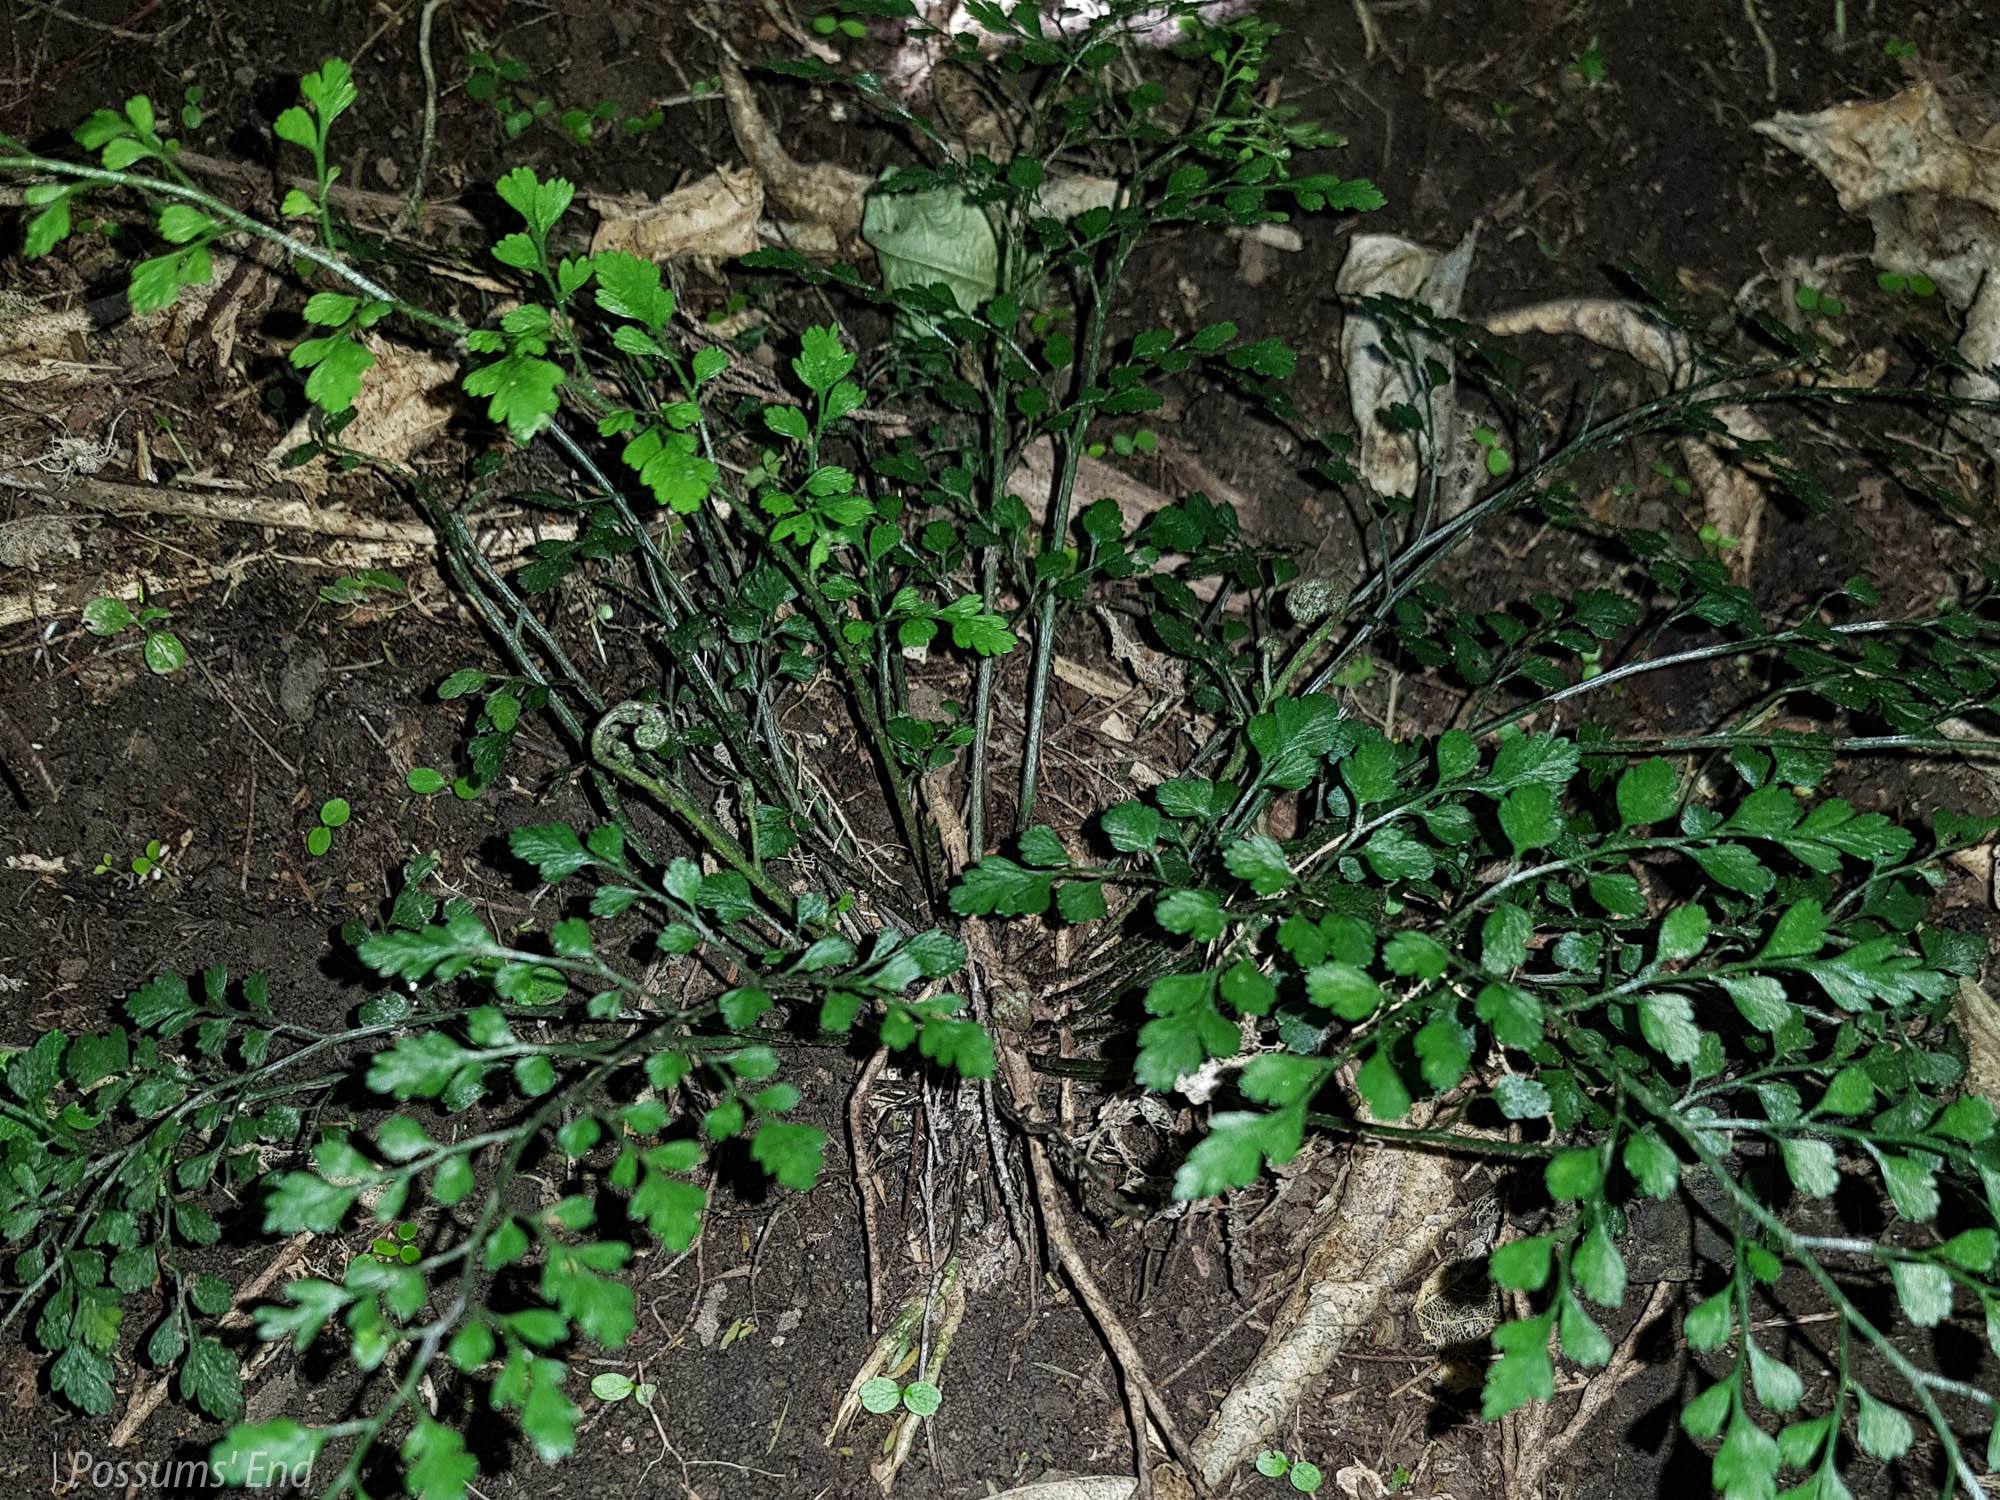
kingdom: Plantae
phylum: Tracheophyta
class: Polypodiopsida
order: Polypodiales
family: Aspleniaceae
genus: Asplenium
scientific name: Asplenium hookerianum
